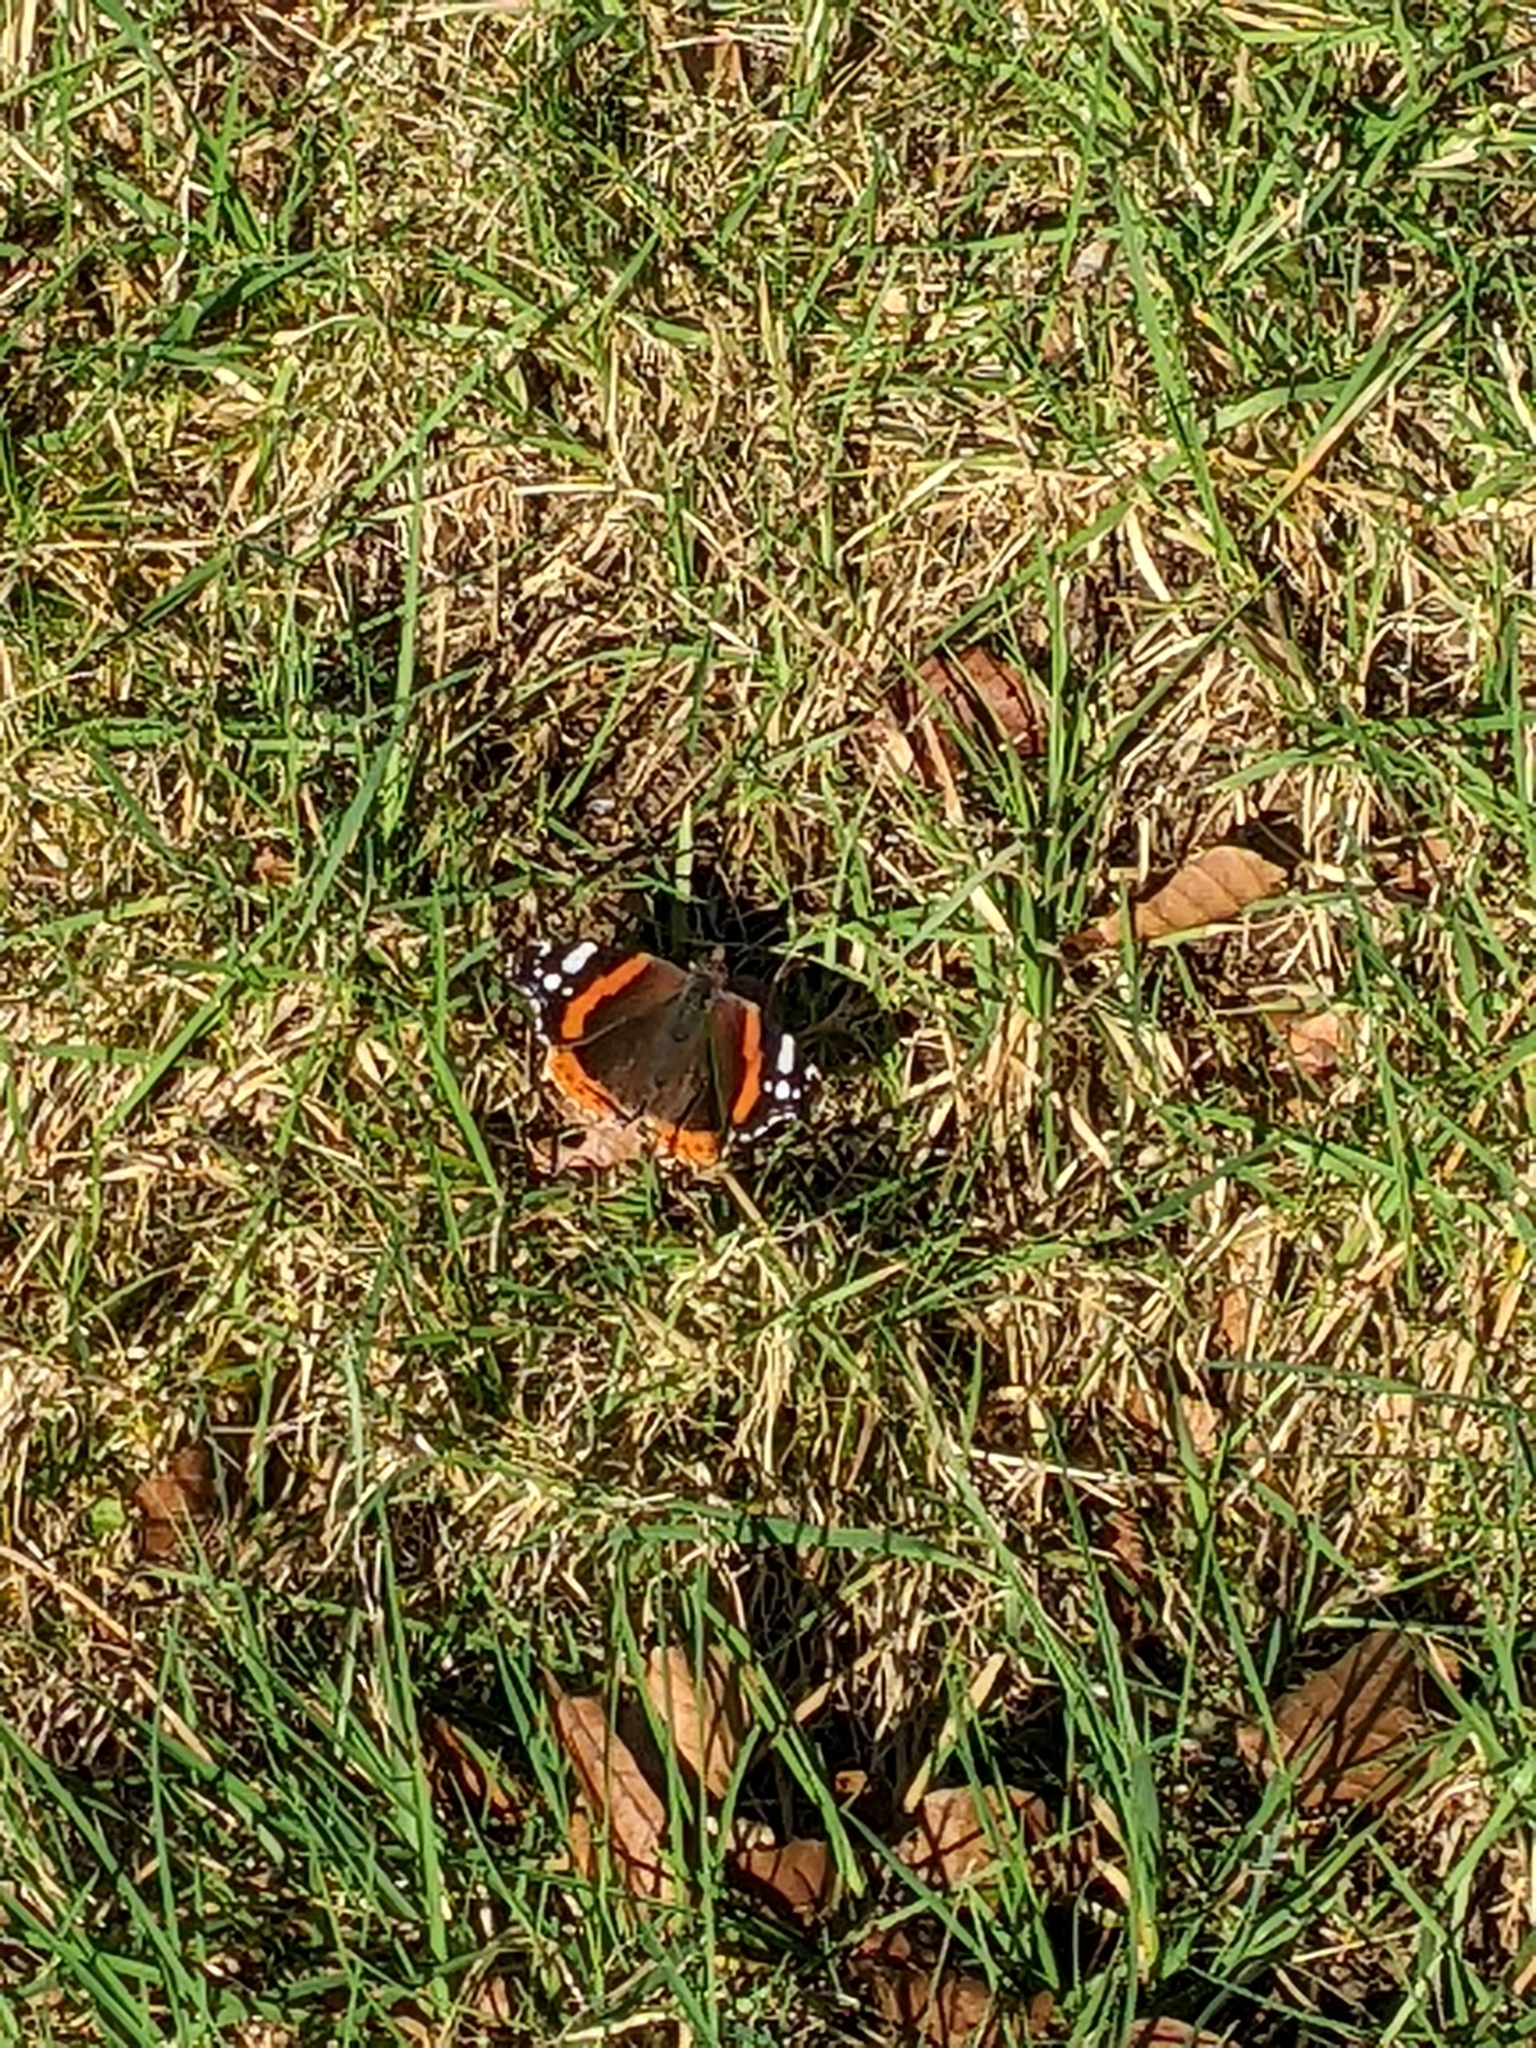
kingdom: Animalia
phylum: Arthropoda
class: Insecta
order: Lepidoptera
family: Nymphalidae
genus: Vanessa
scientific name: Vanessa atalanta
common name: Red admiral
